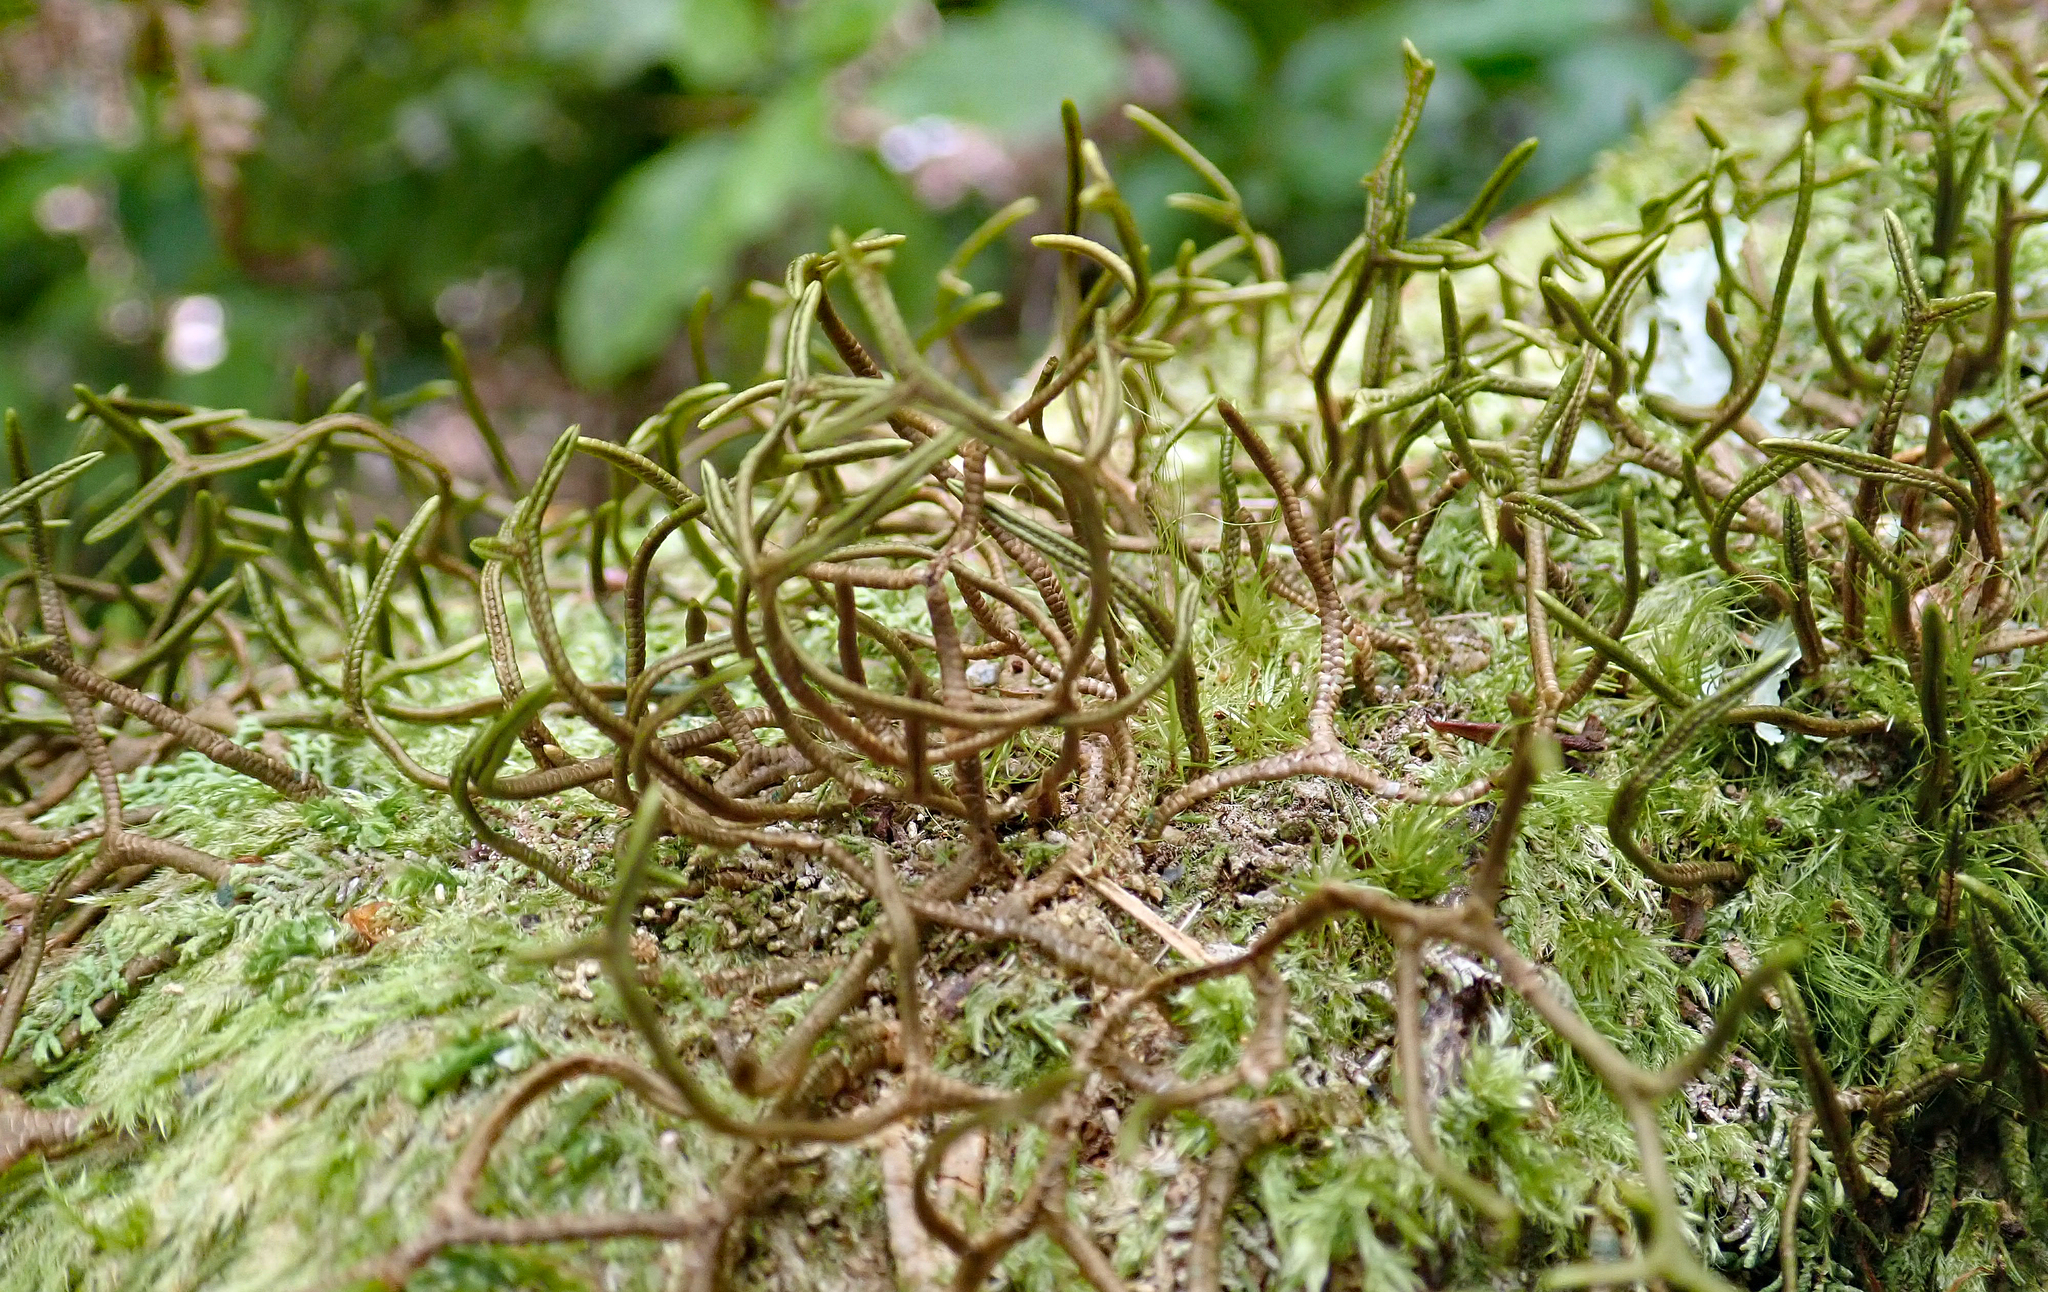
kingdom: Plantae
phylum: Marchantiophyta
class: Jungermanniopsida
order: Porellales
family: Porellaceae
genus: Porella
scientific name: Porella elegantula
